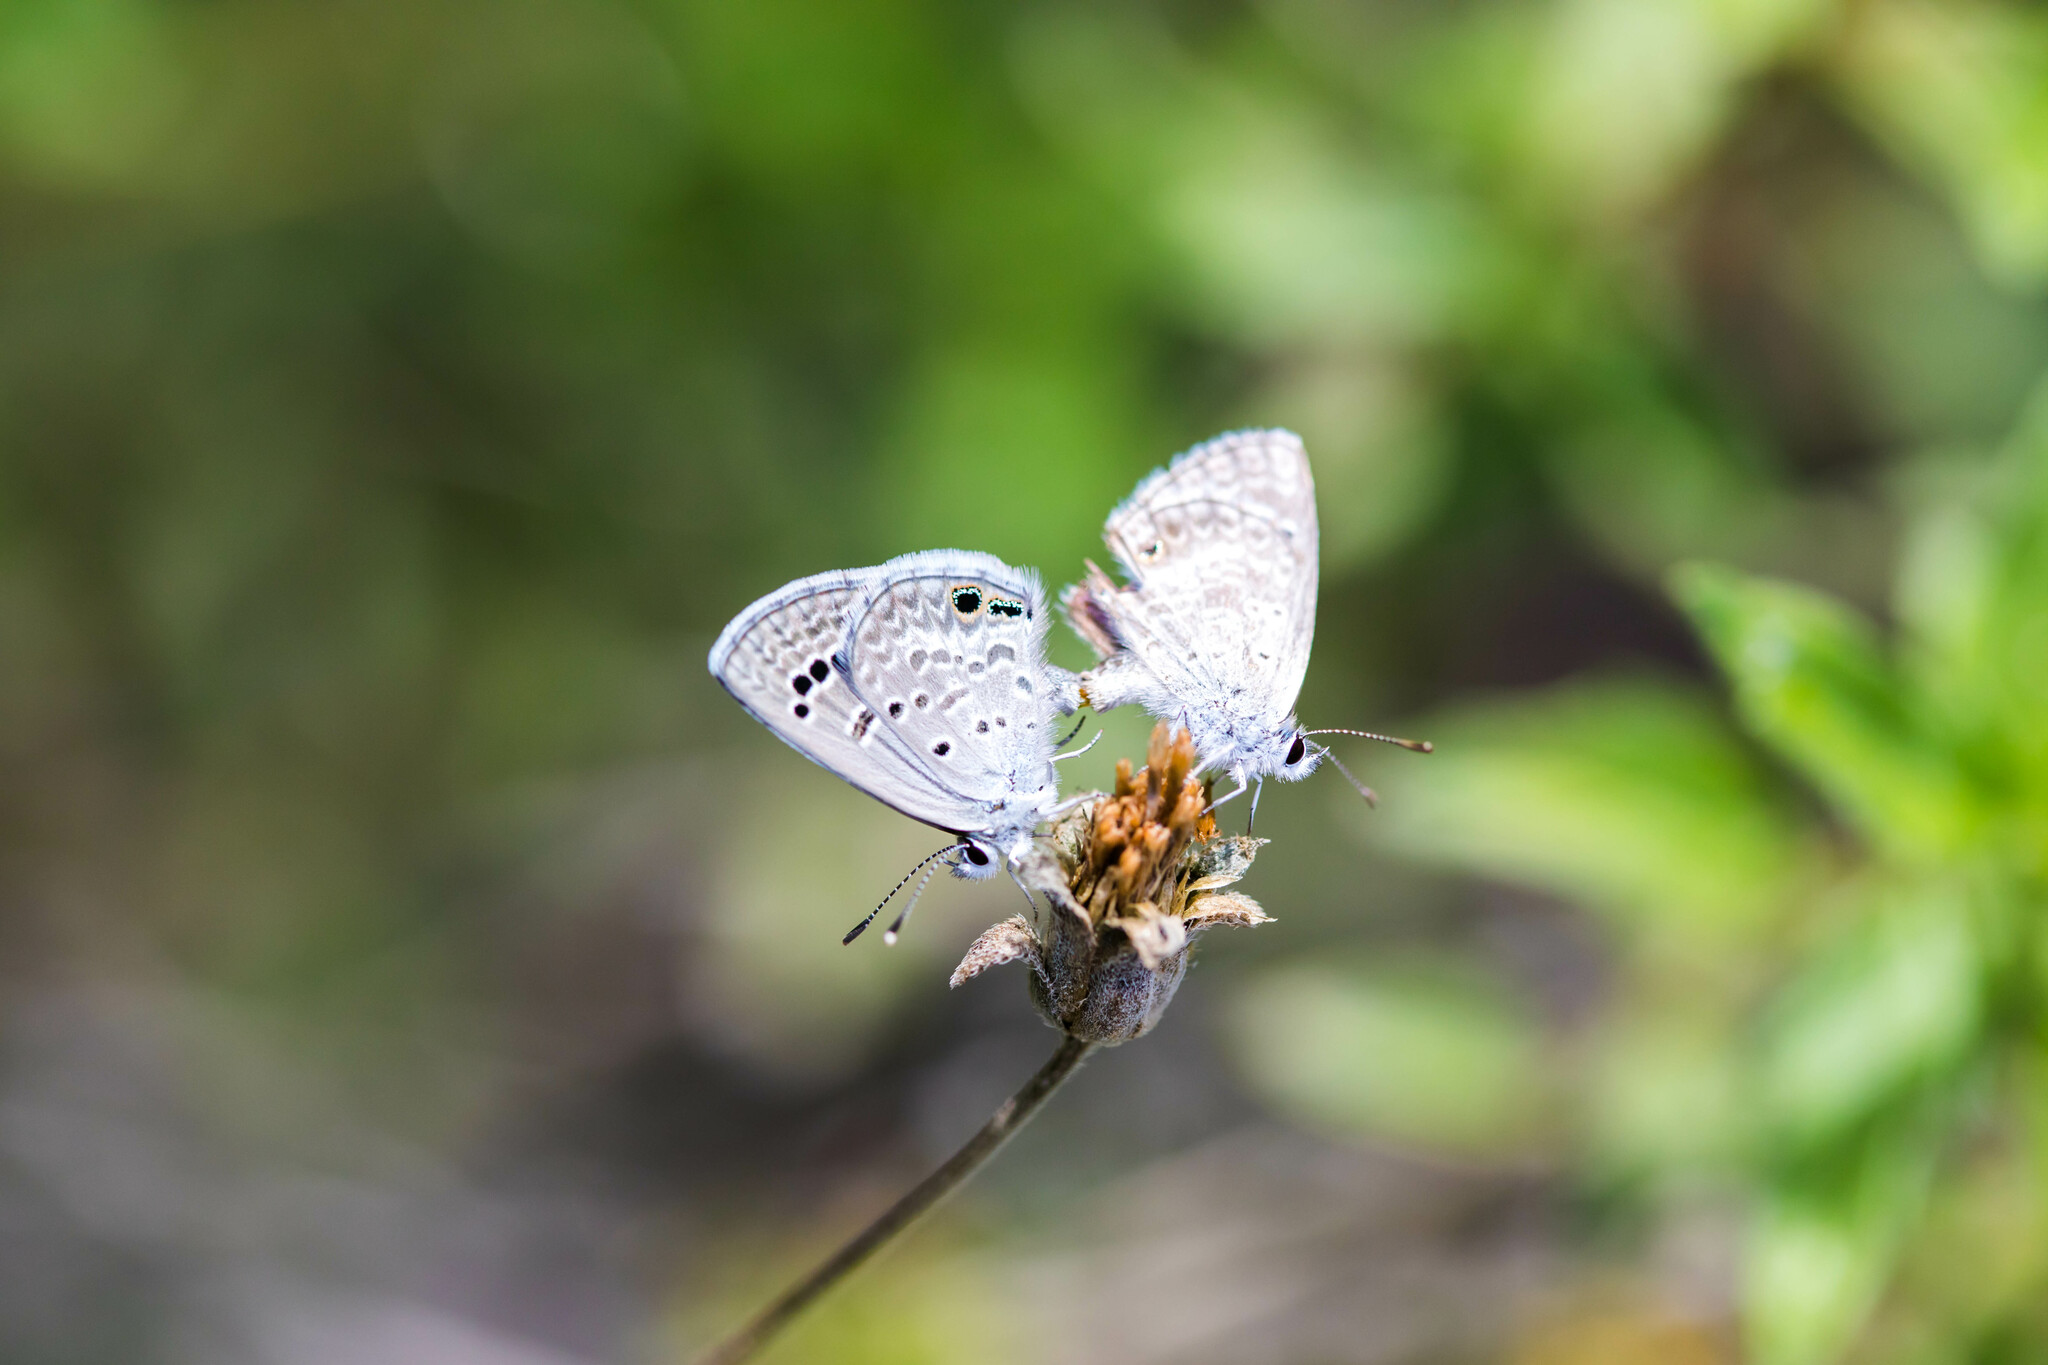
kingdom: Animalia
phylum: Arthropoda
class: Insecta
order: Lepidoptera
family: Lycaenidae
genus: Echinargus
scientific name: Echinargus isola
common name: Reakirt's blue
